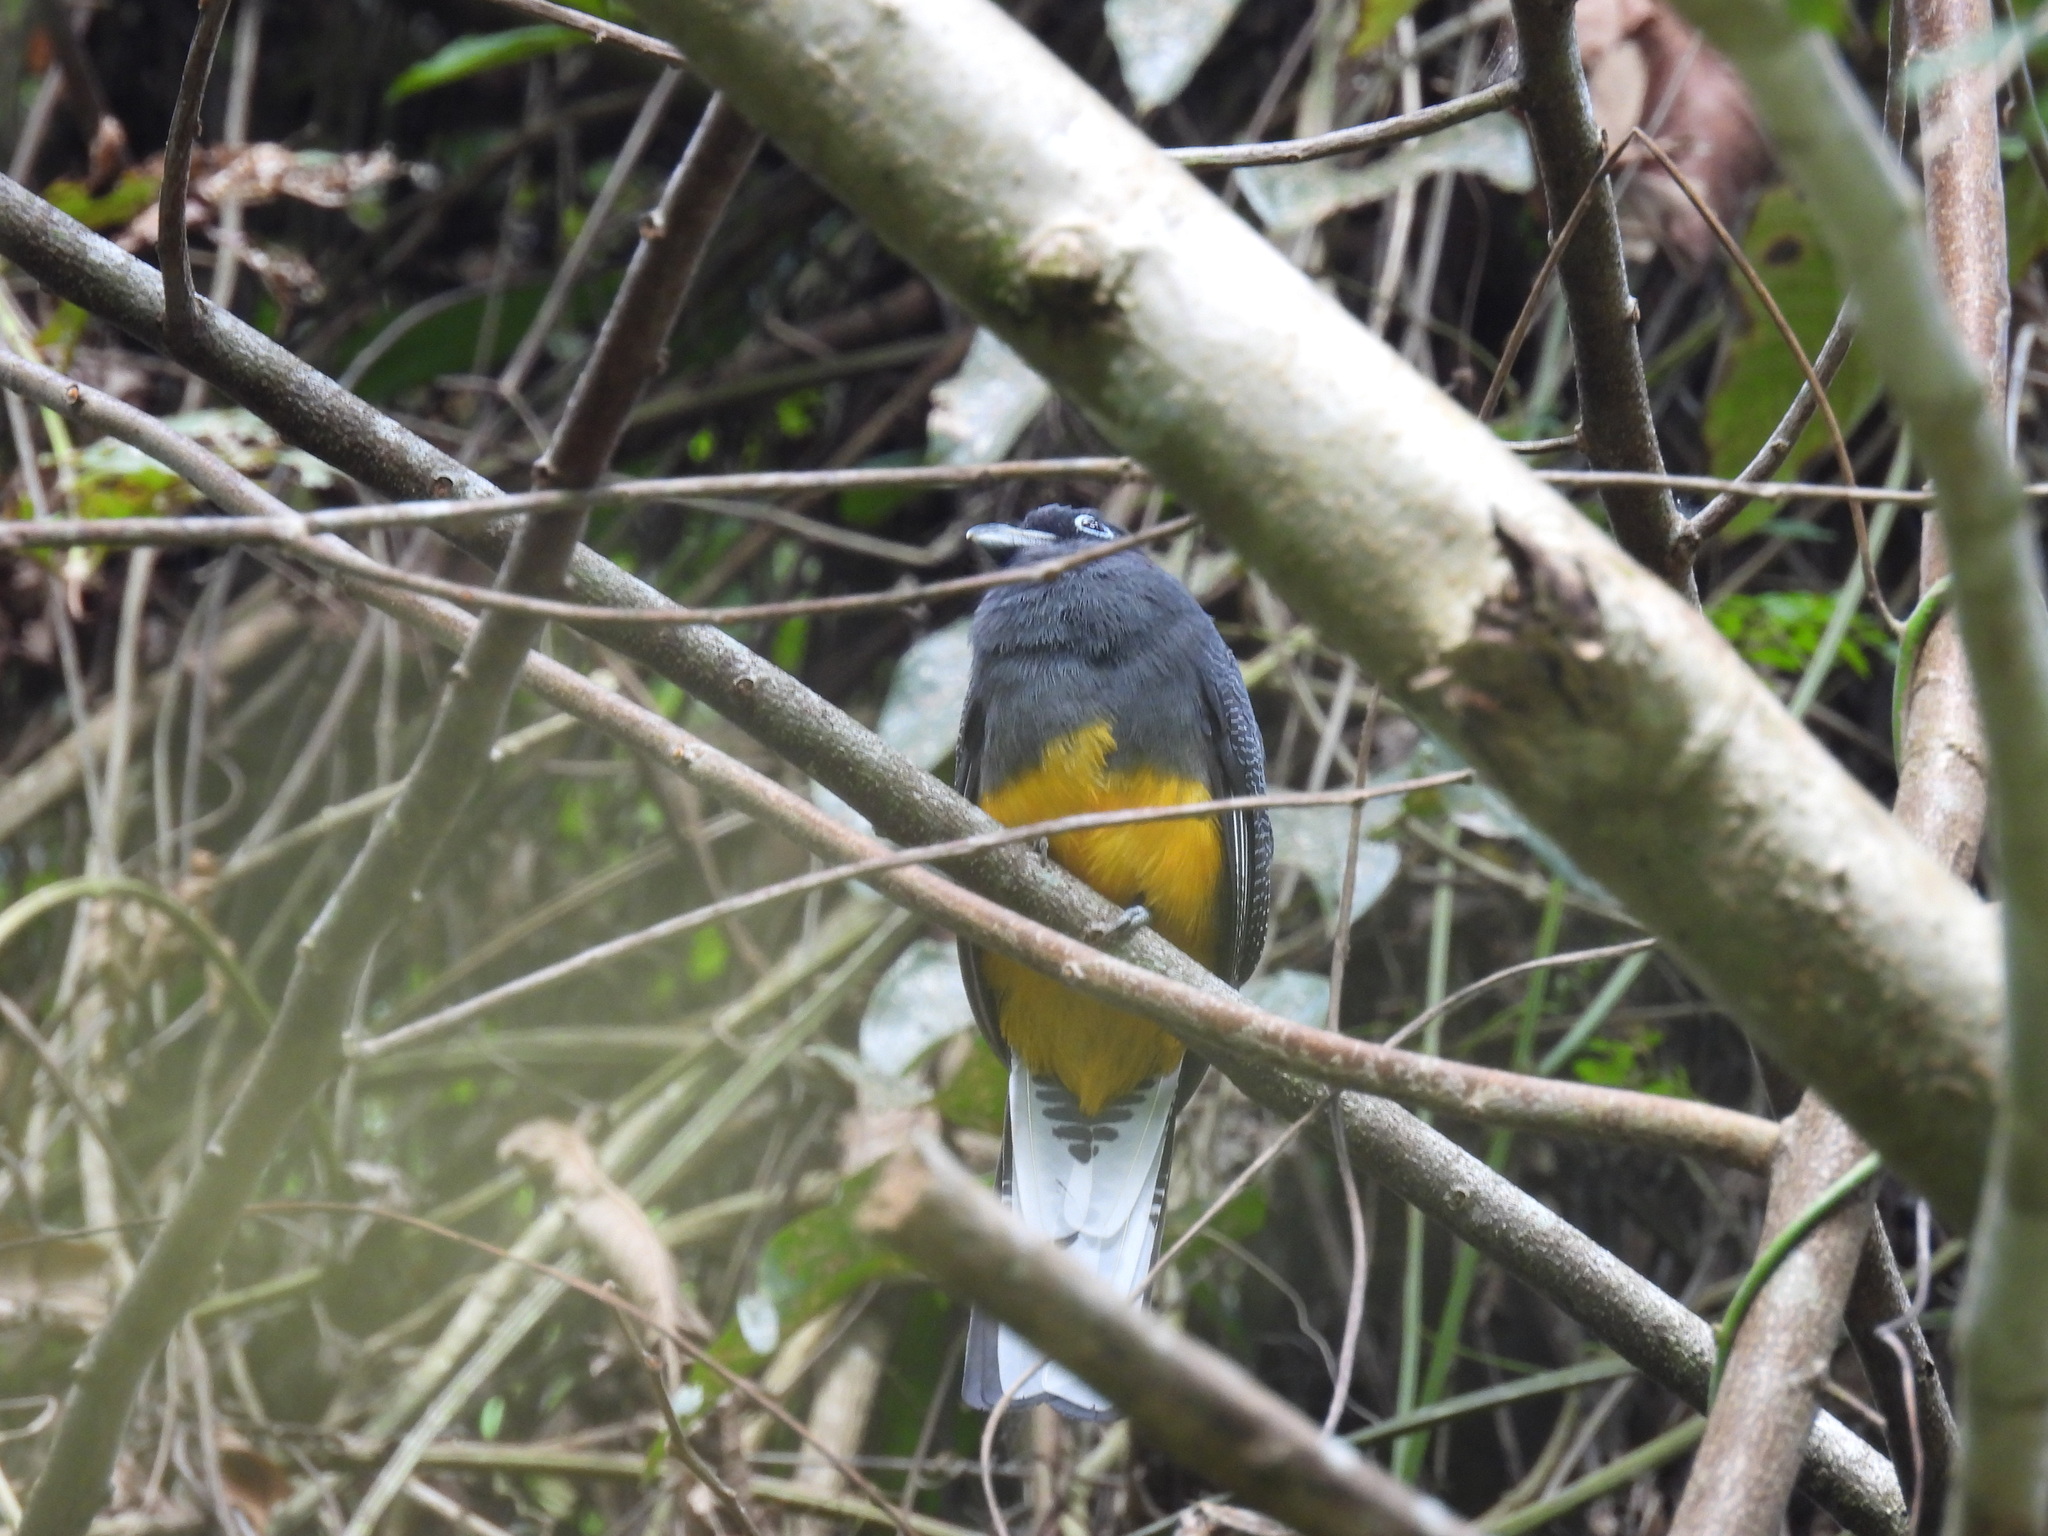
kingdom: Animalia
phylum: Chordata
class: Aves
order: Trogoniformes
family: Trogonidae
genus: Trogon
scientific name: Trogon caligatus
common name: Gartered trogon
